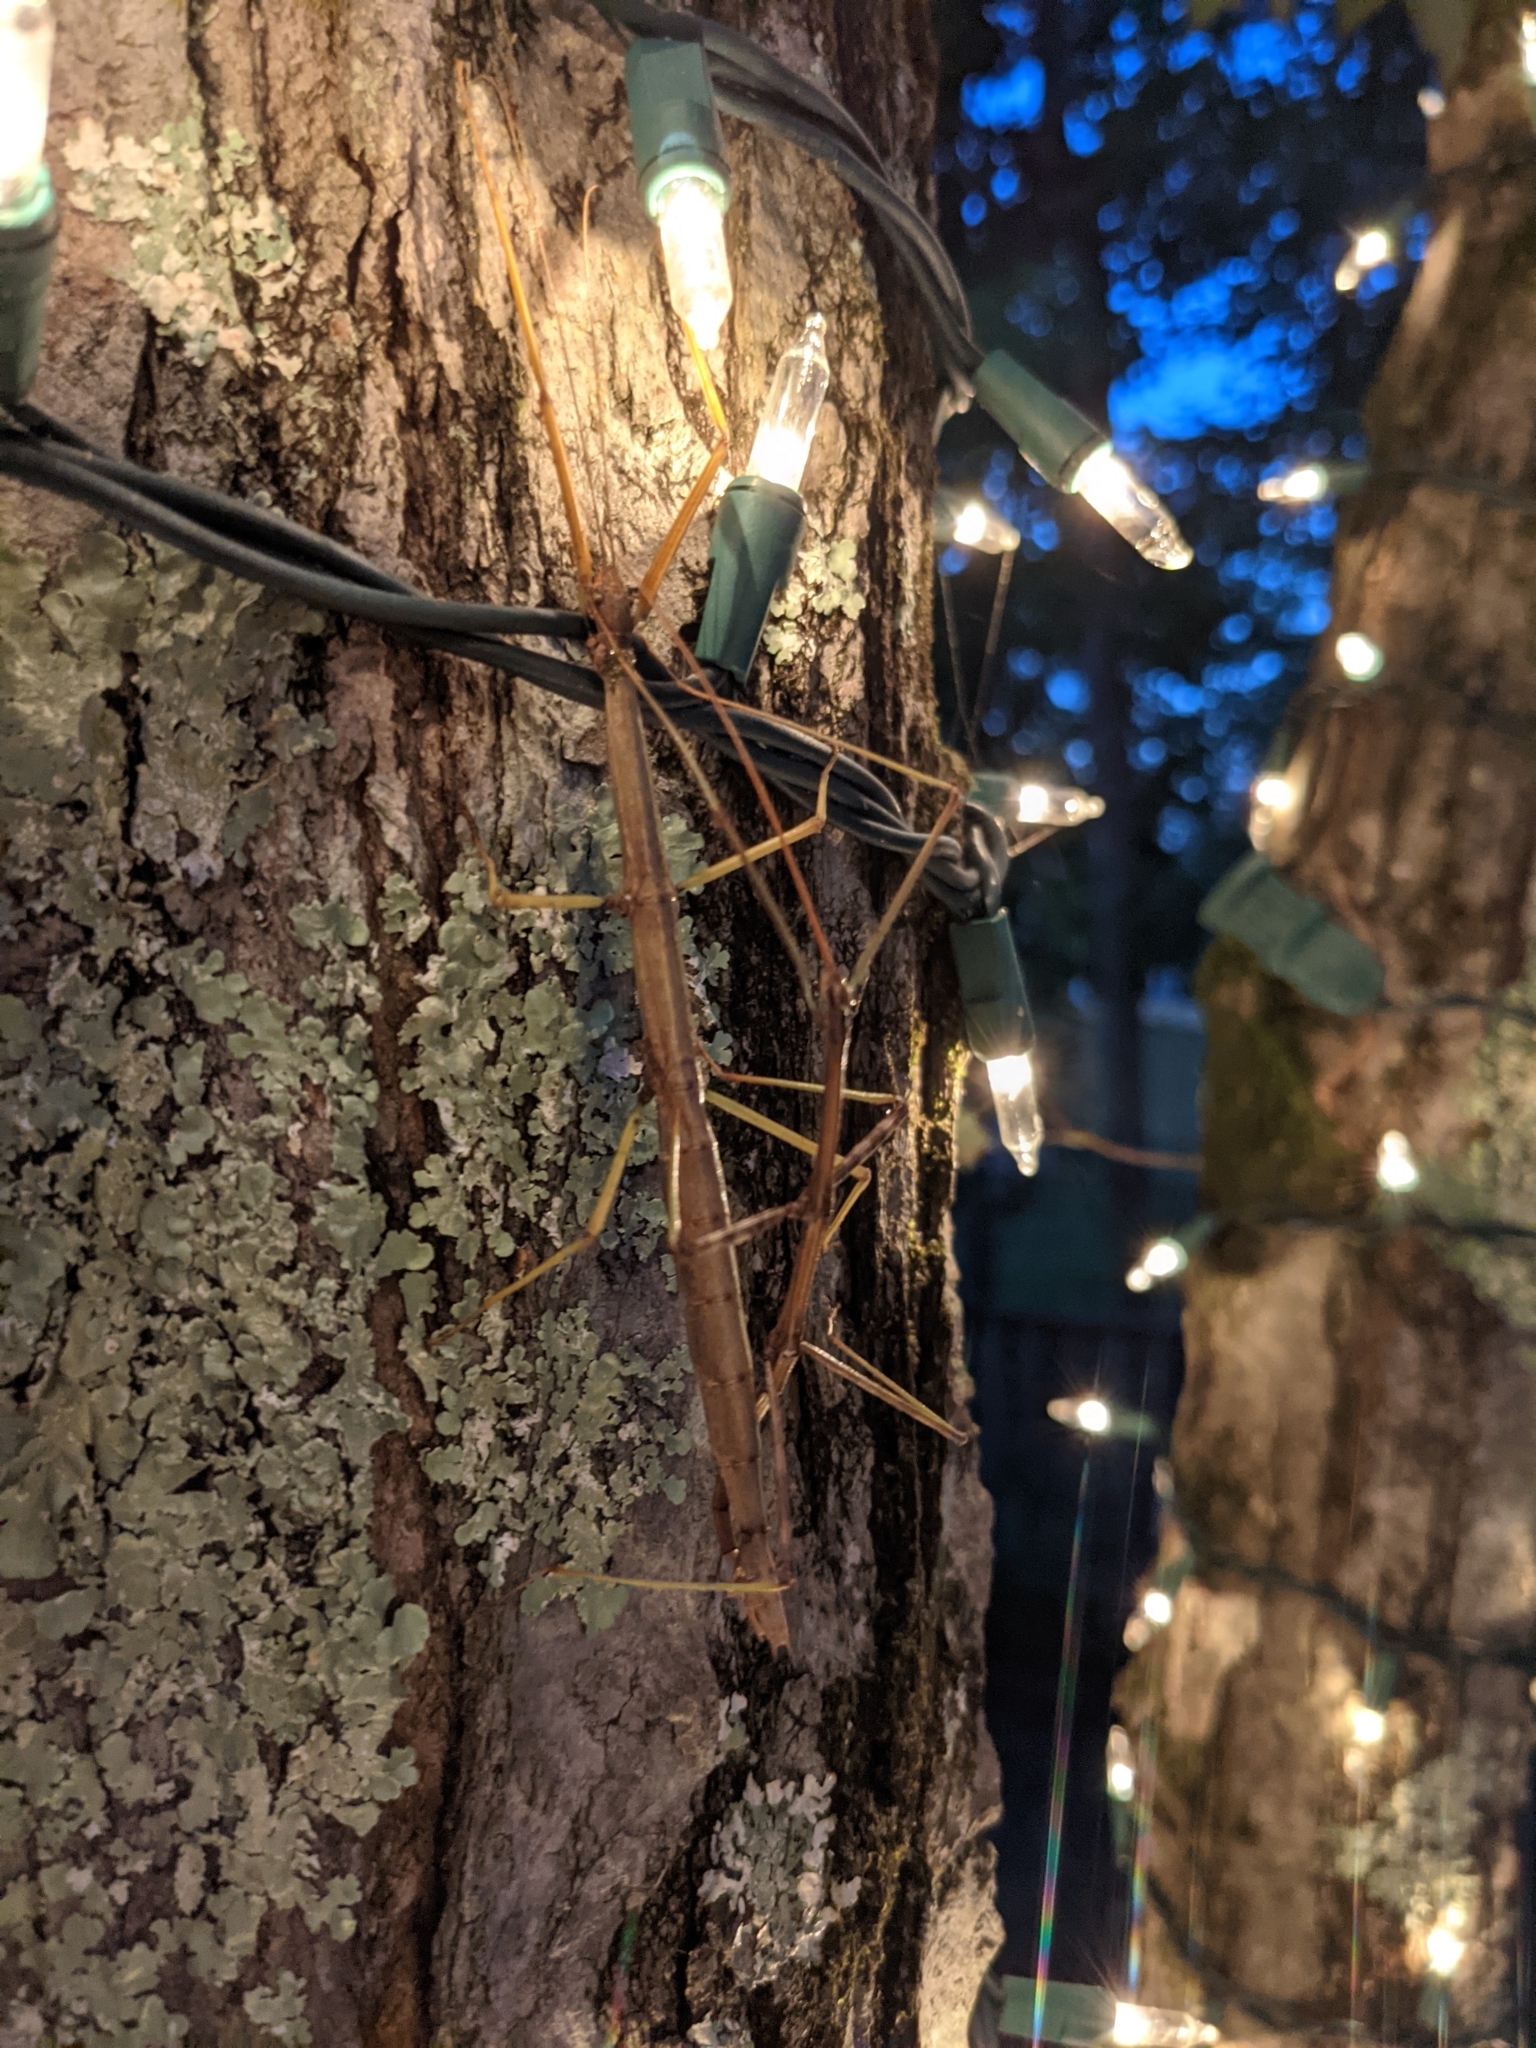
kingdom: Animalia
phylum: Arthropoda
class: Insecta
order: Phasmida
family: Diapheromeridae
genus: Diapheromera
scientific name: Diapheromera femorata
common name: Common american walkingstick
